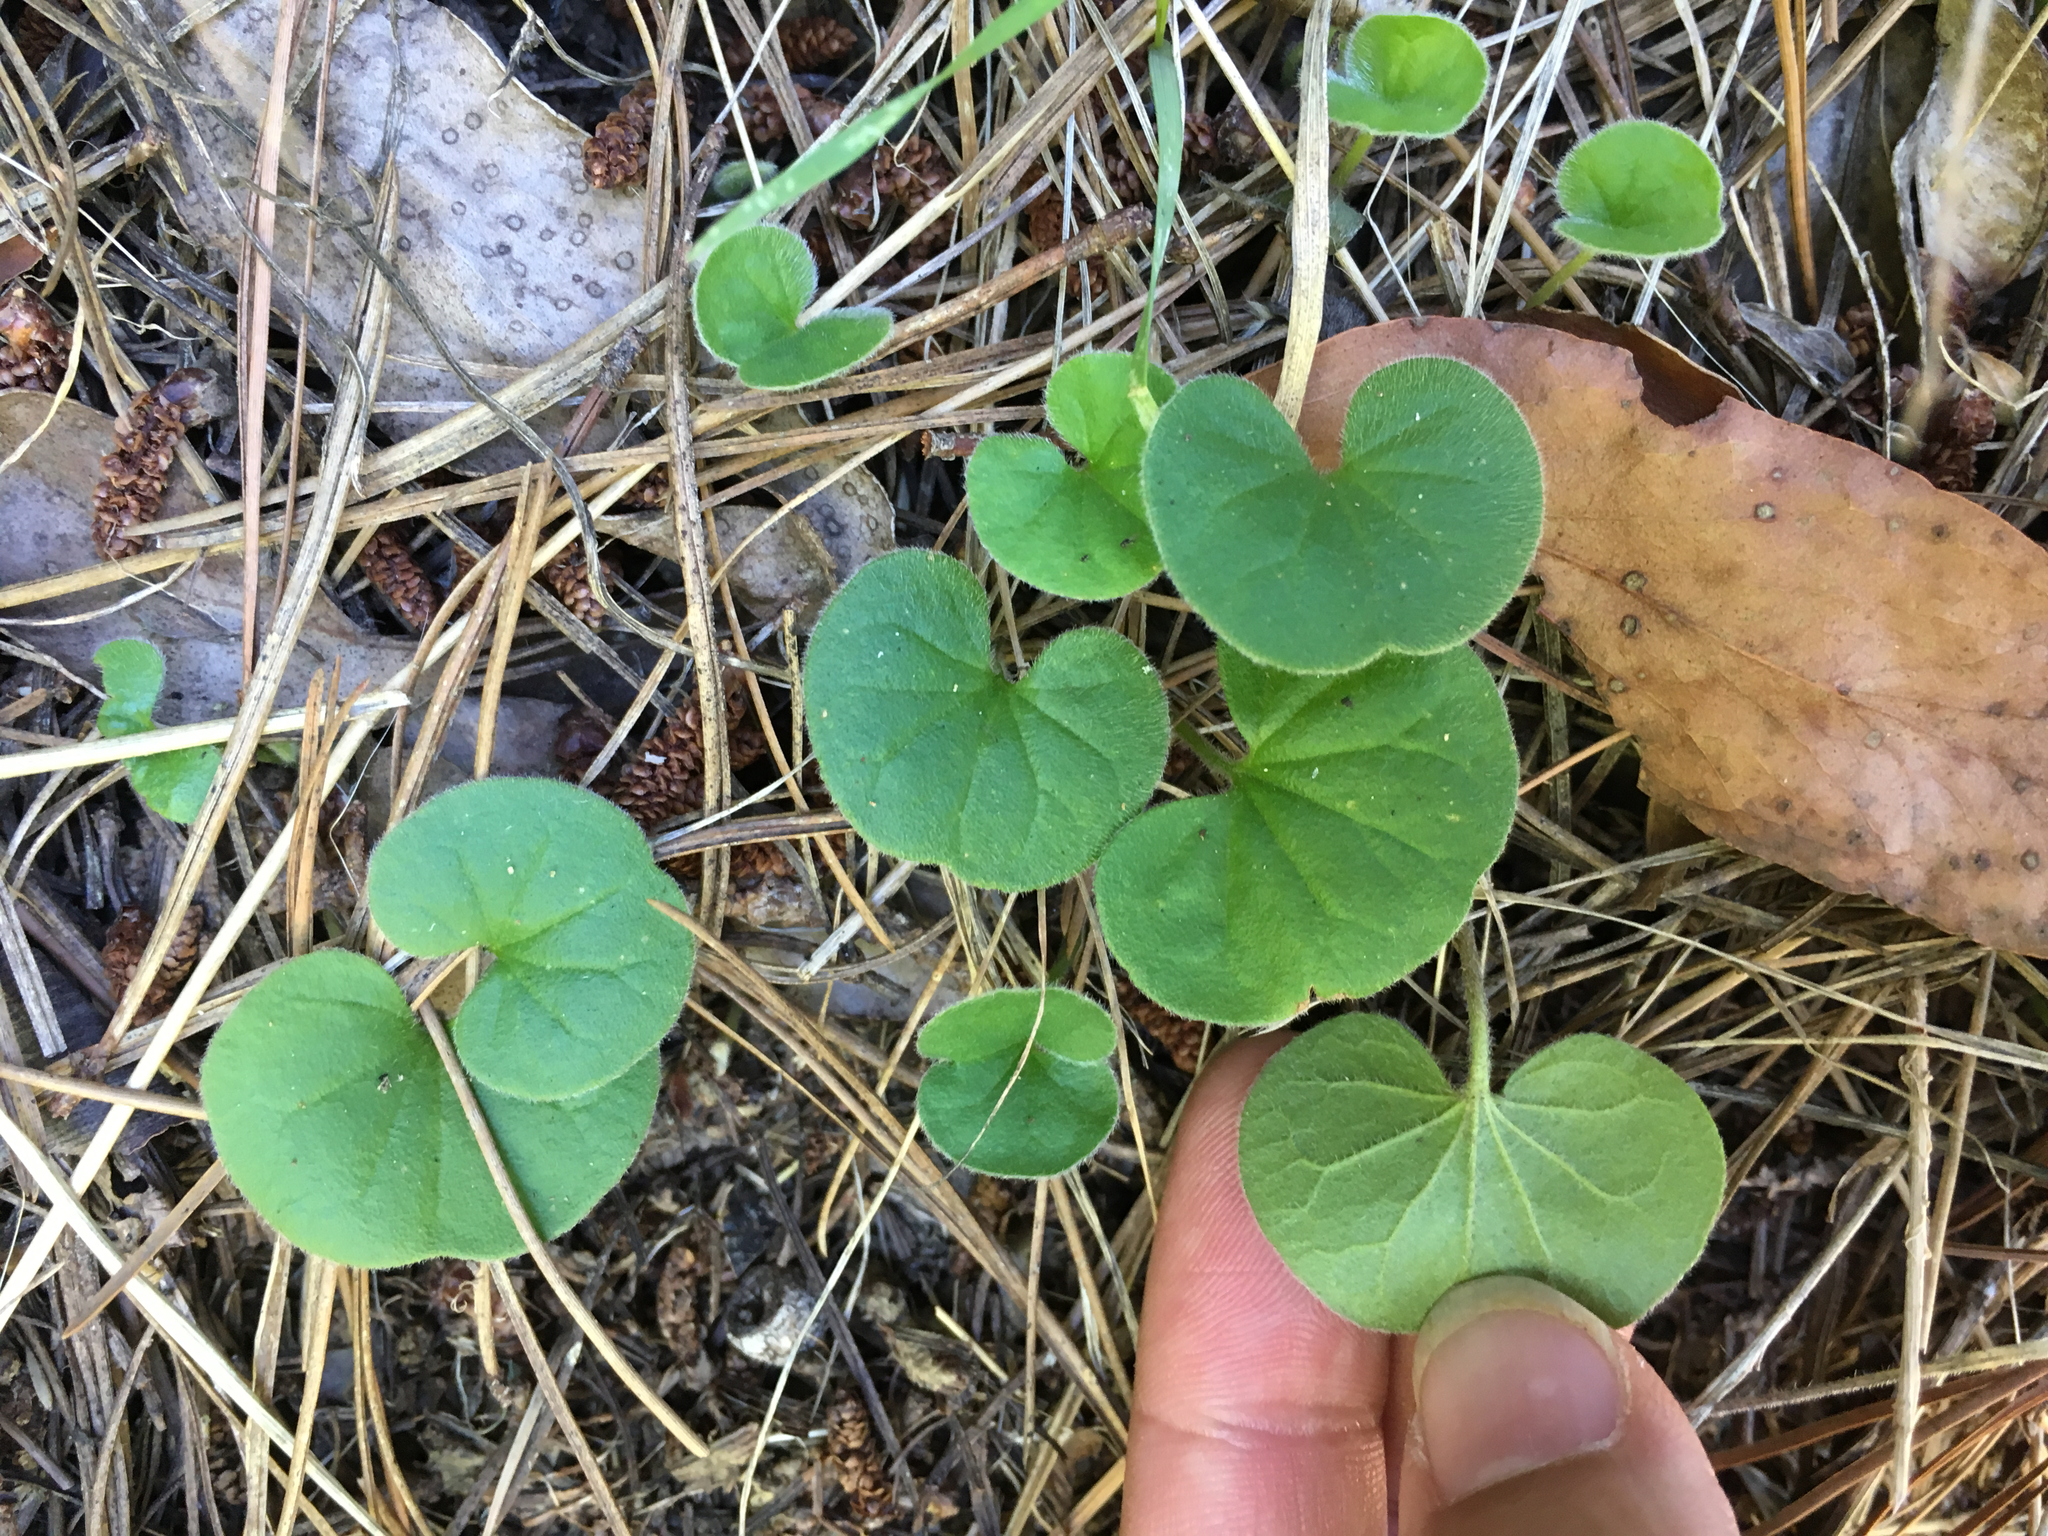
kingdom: Plantae
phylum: Tracheophyta
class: Magnoliopsida
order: Solanales
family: Convolvulaceae
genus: Dichondra
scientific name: Dichondra repens
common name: Kidneyweed
